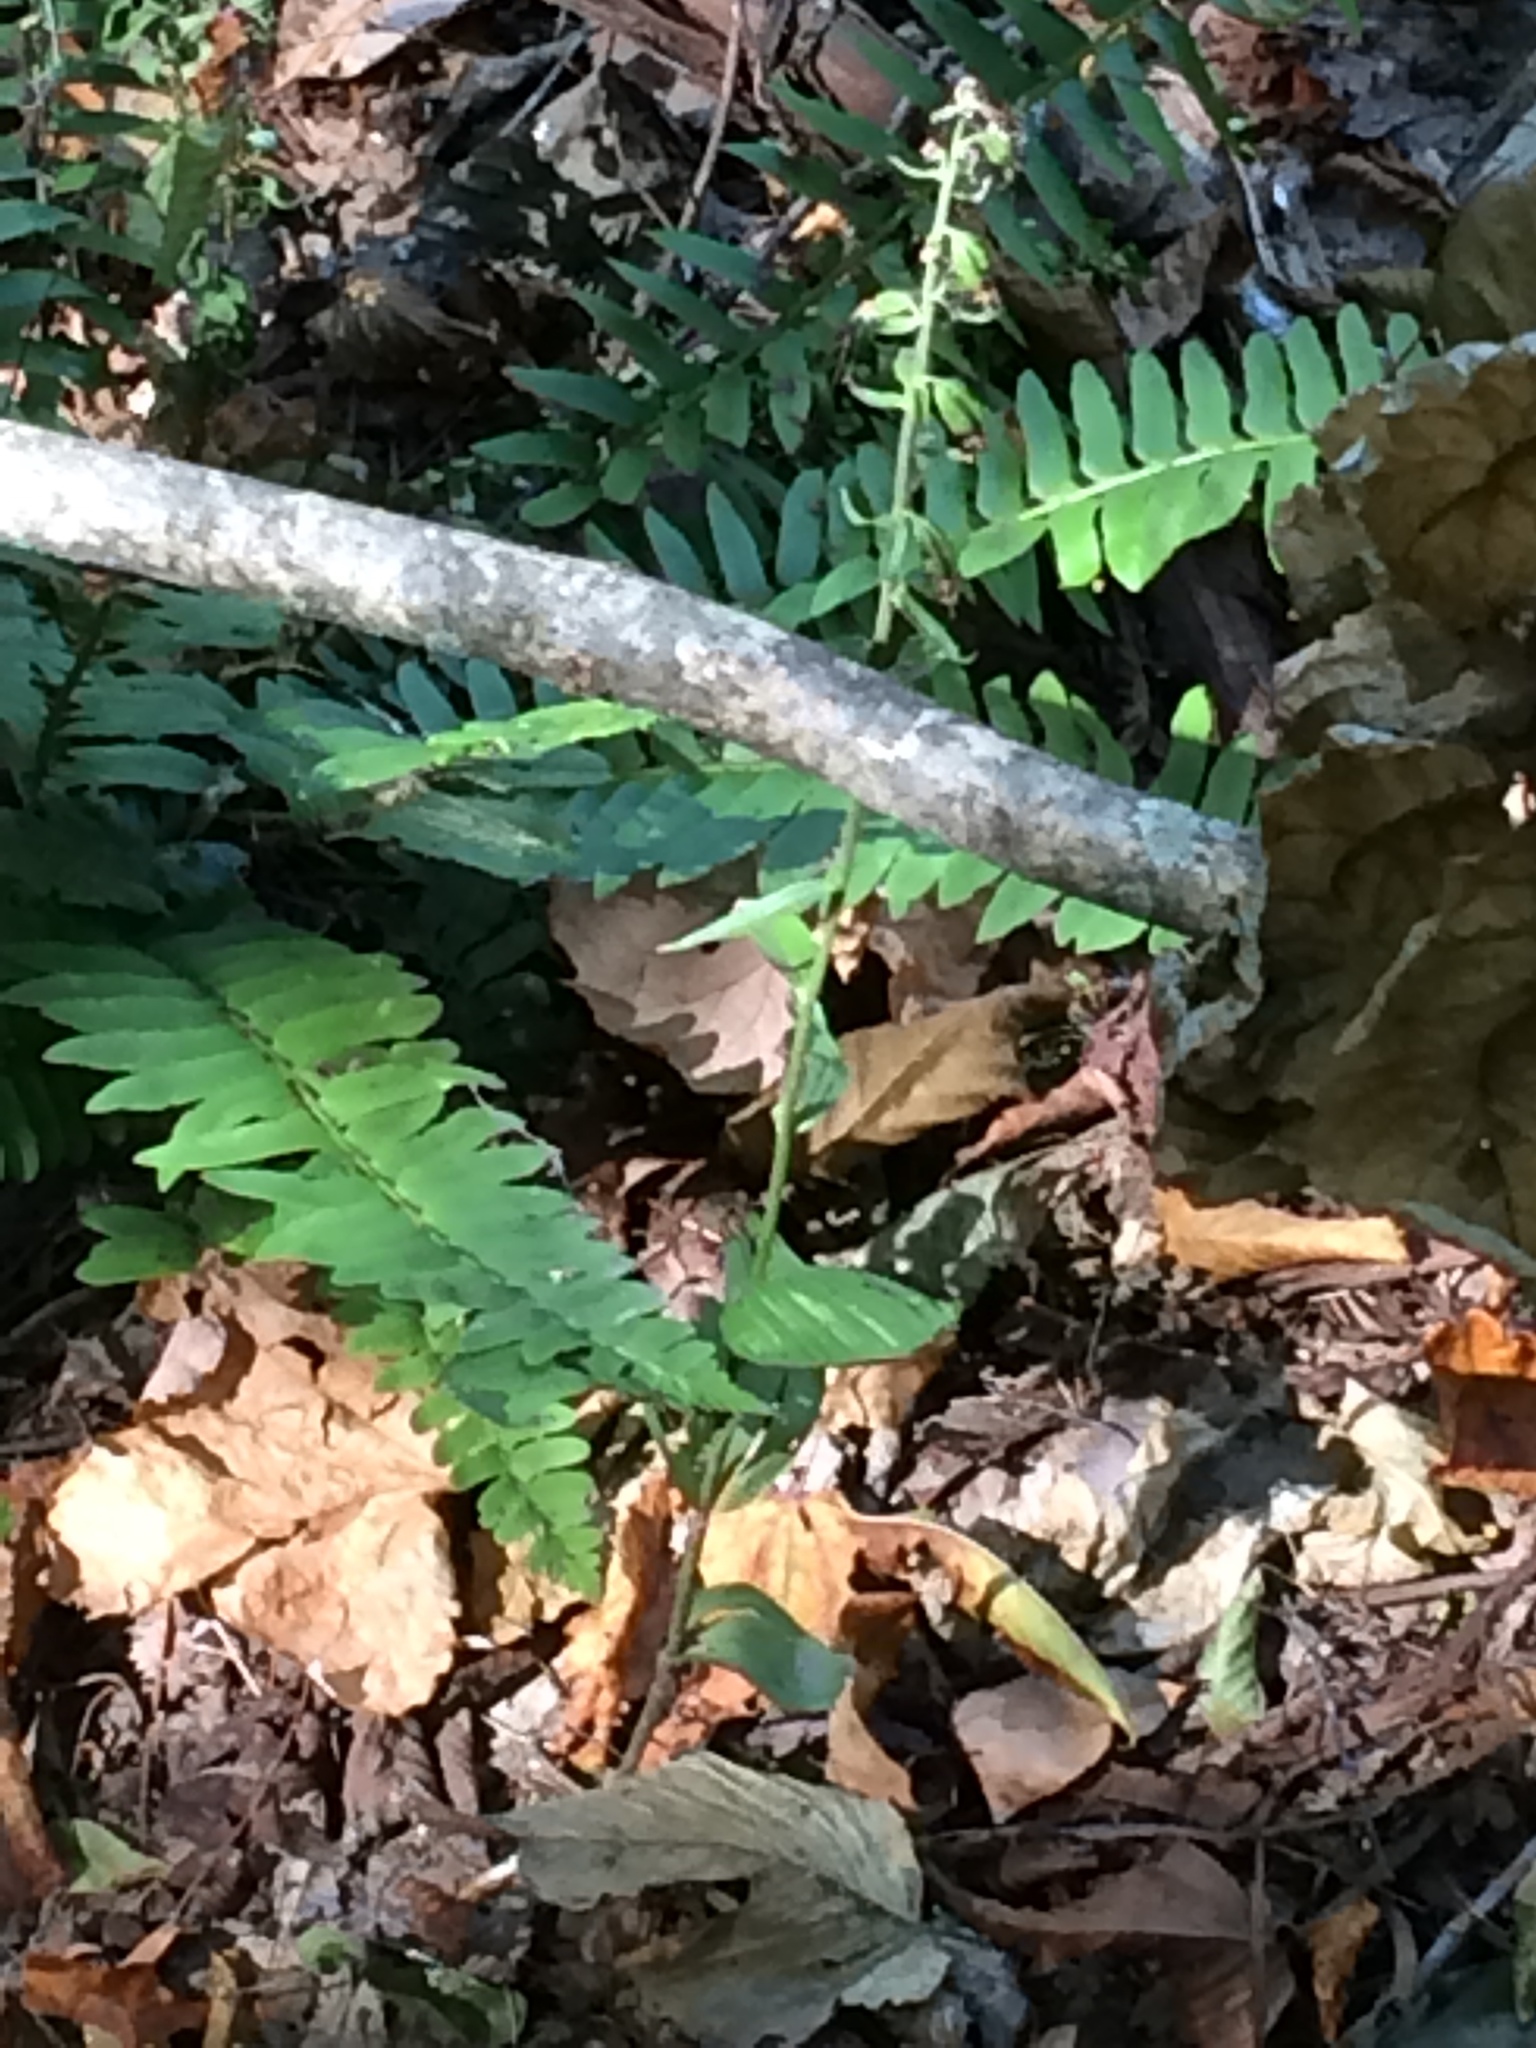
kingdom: Plantae
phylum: Tracheophyta
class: Liliopsida
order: Asparagales
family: Orchidaceae
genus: Epipactis
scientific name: Epipactis helleborine
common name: Broad-leaved helleborine
